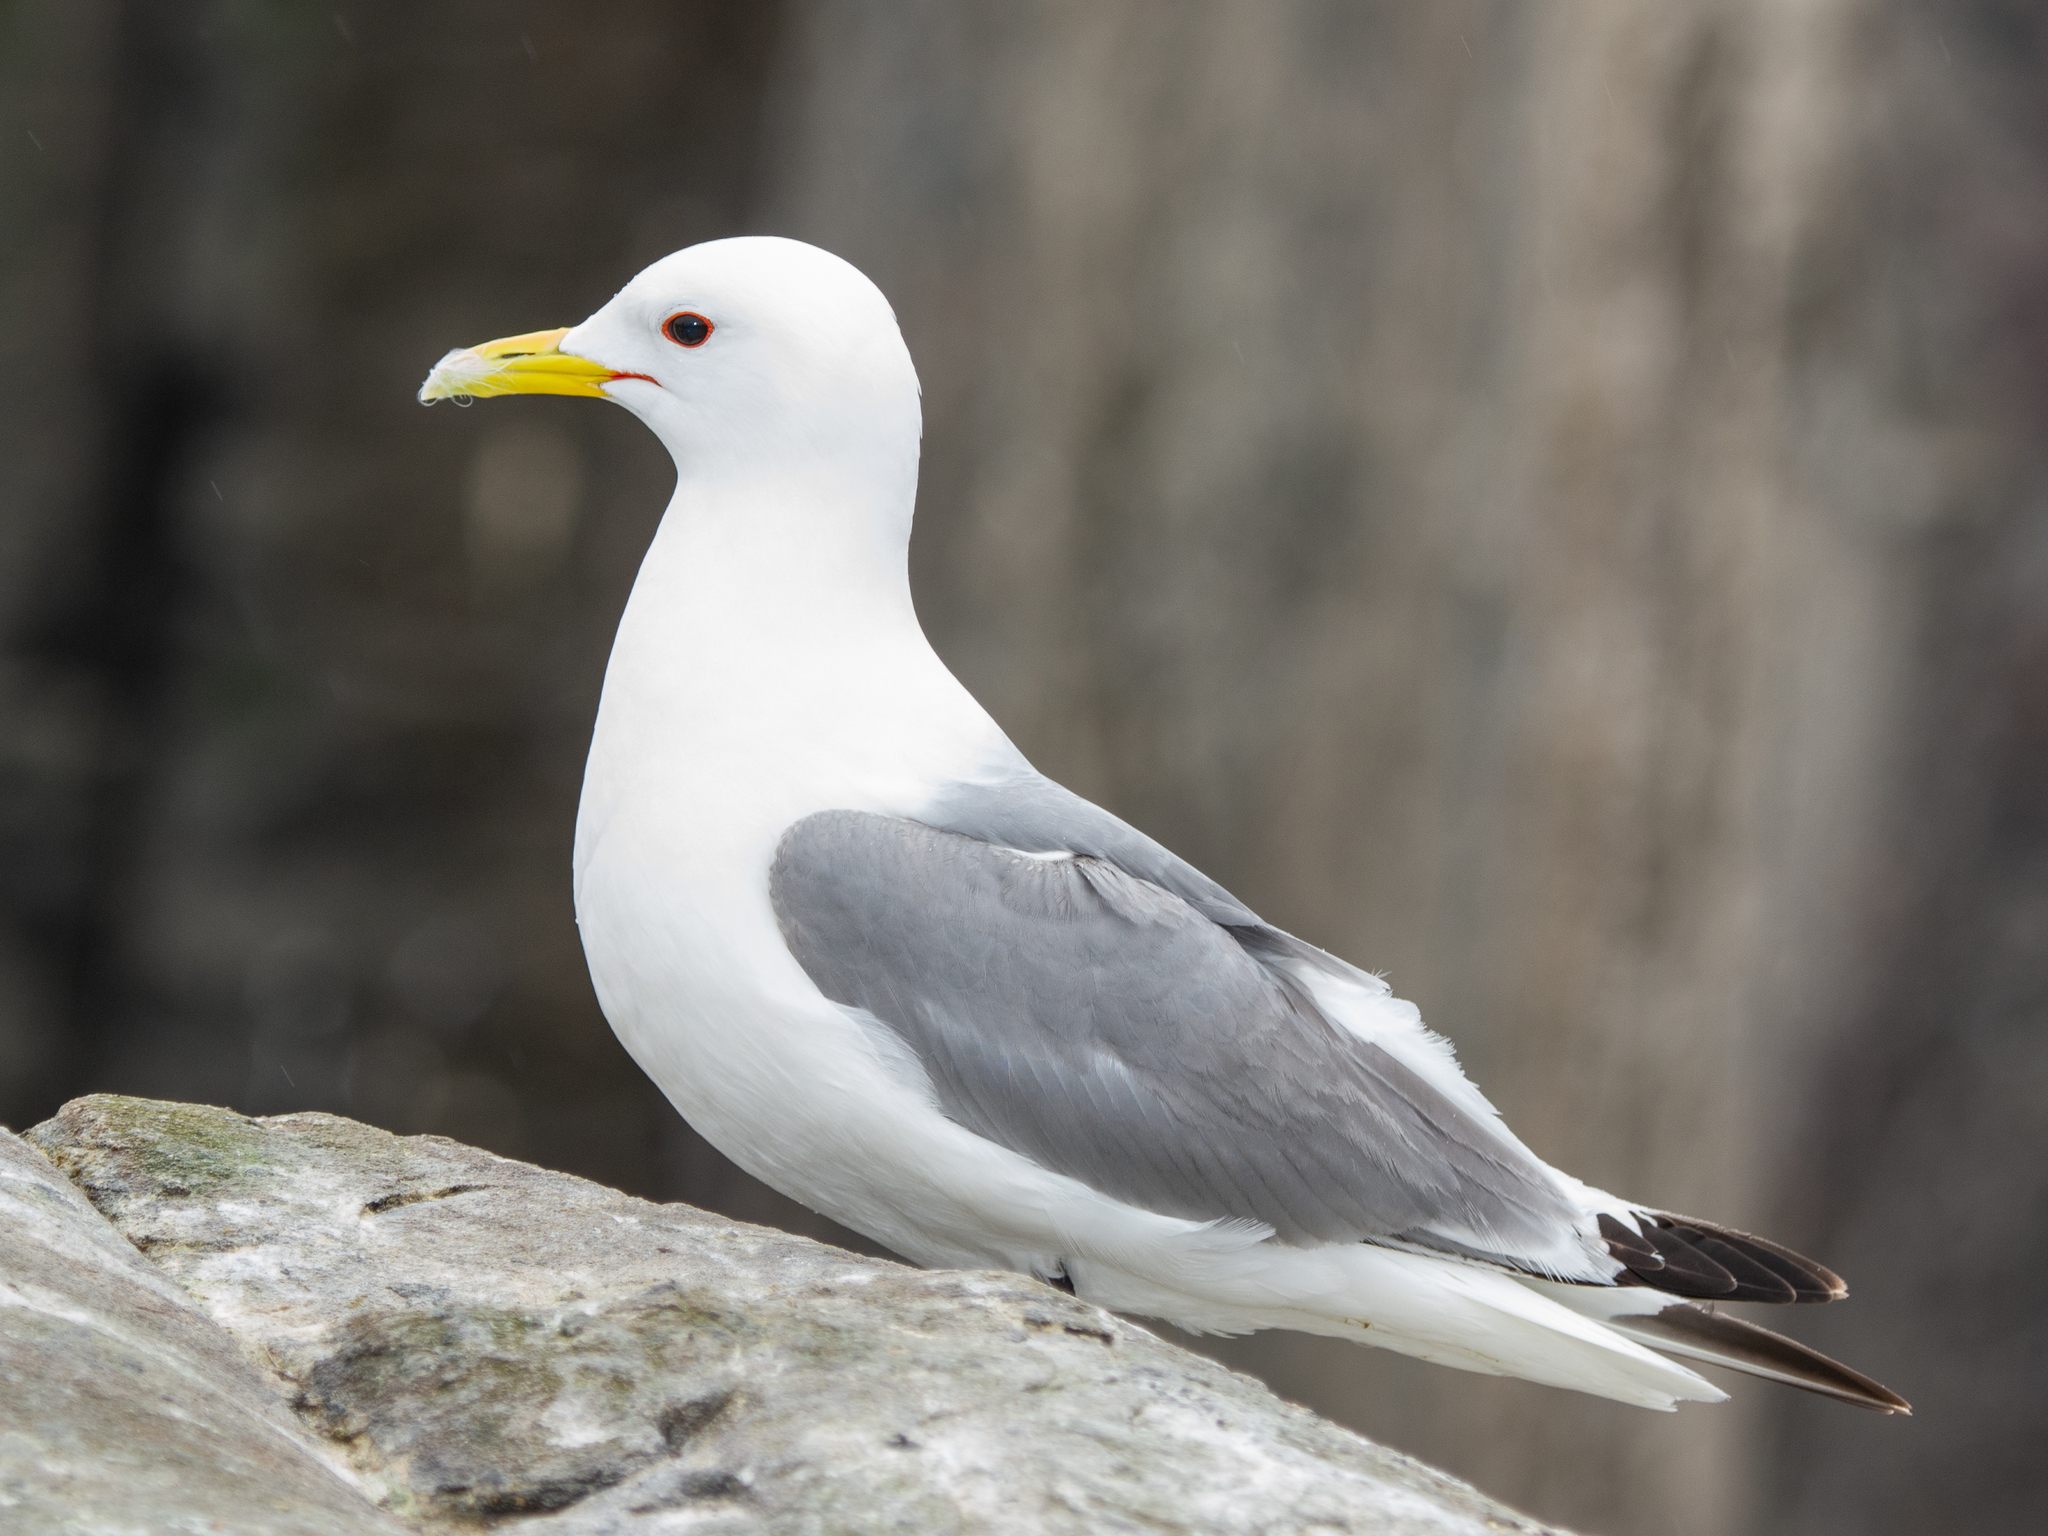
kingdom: Animalia
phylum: Chordata
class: Aves
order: Charadriiformes
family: Laridae
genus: Rissa
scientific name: Rissa tridactyla
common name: Black-legged kittiwake
